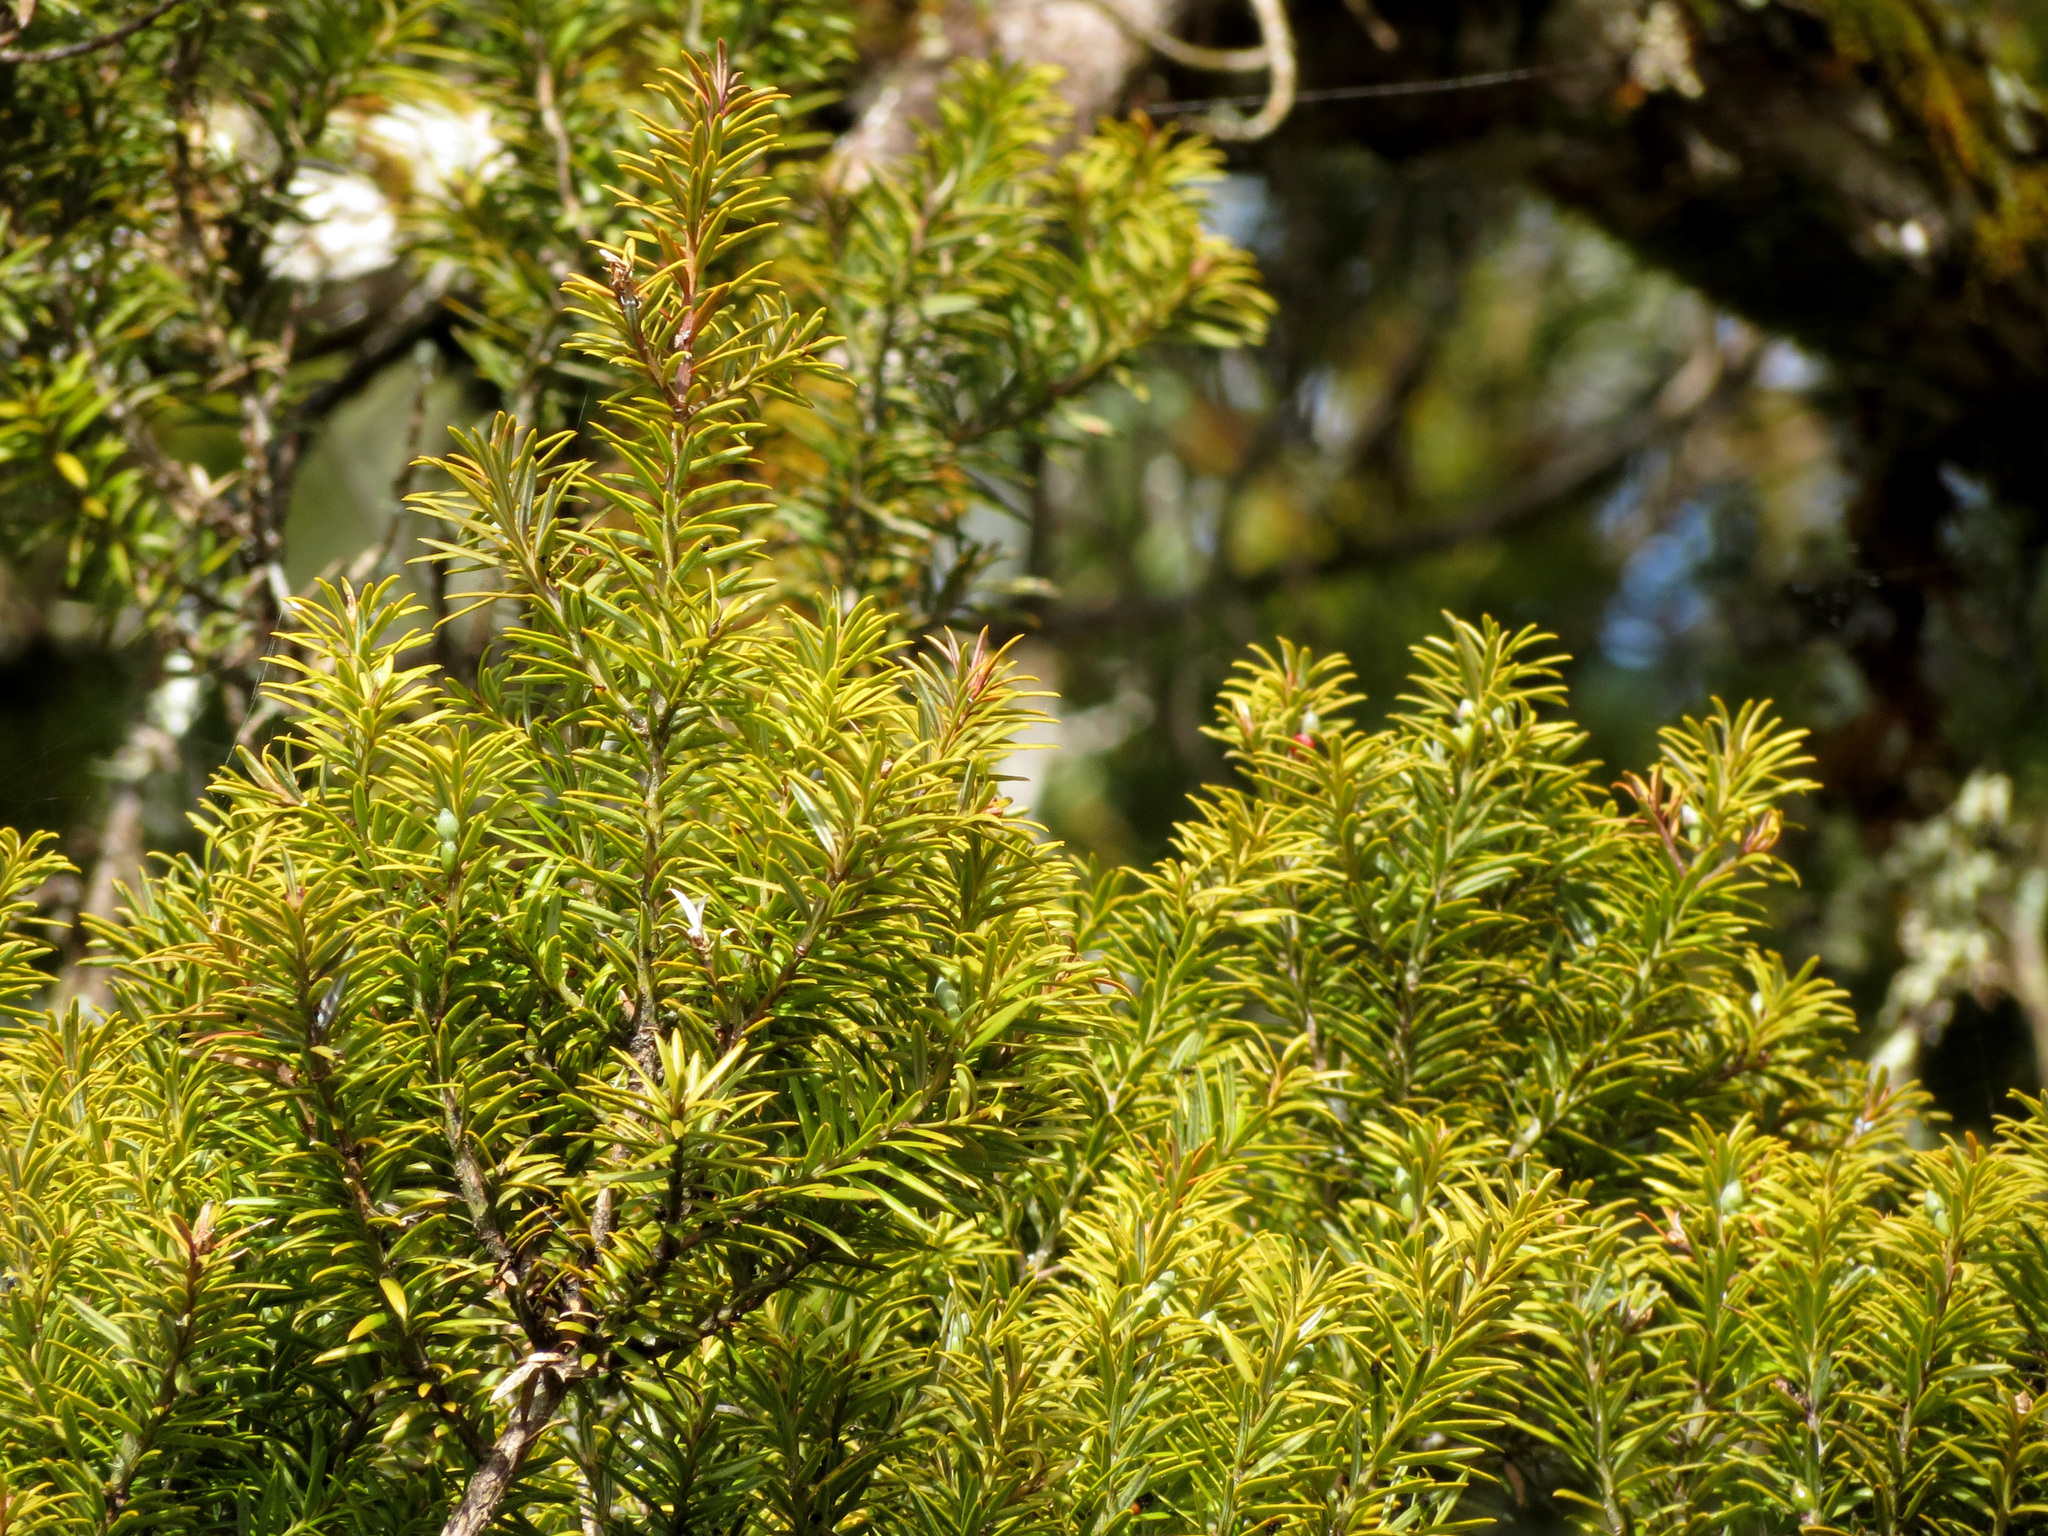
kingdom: Plantae
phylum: Tracheophyta
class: Pinopsida
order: Pinales
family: Podocarpaceae
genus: Podocarpus
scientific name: Podocarpus laetus
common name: Hall's totara
